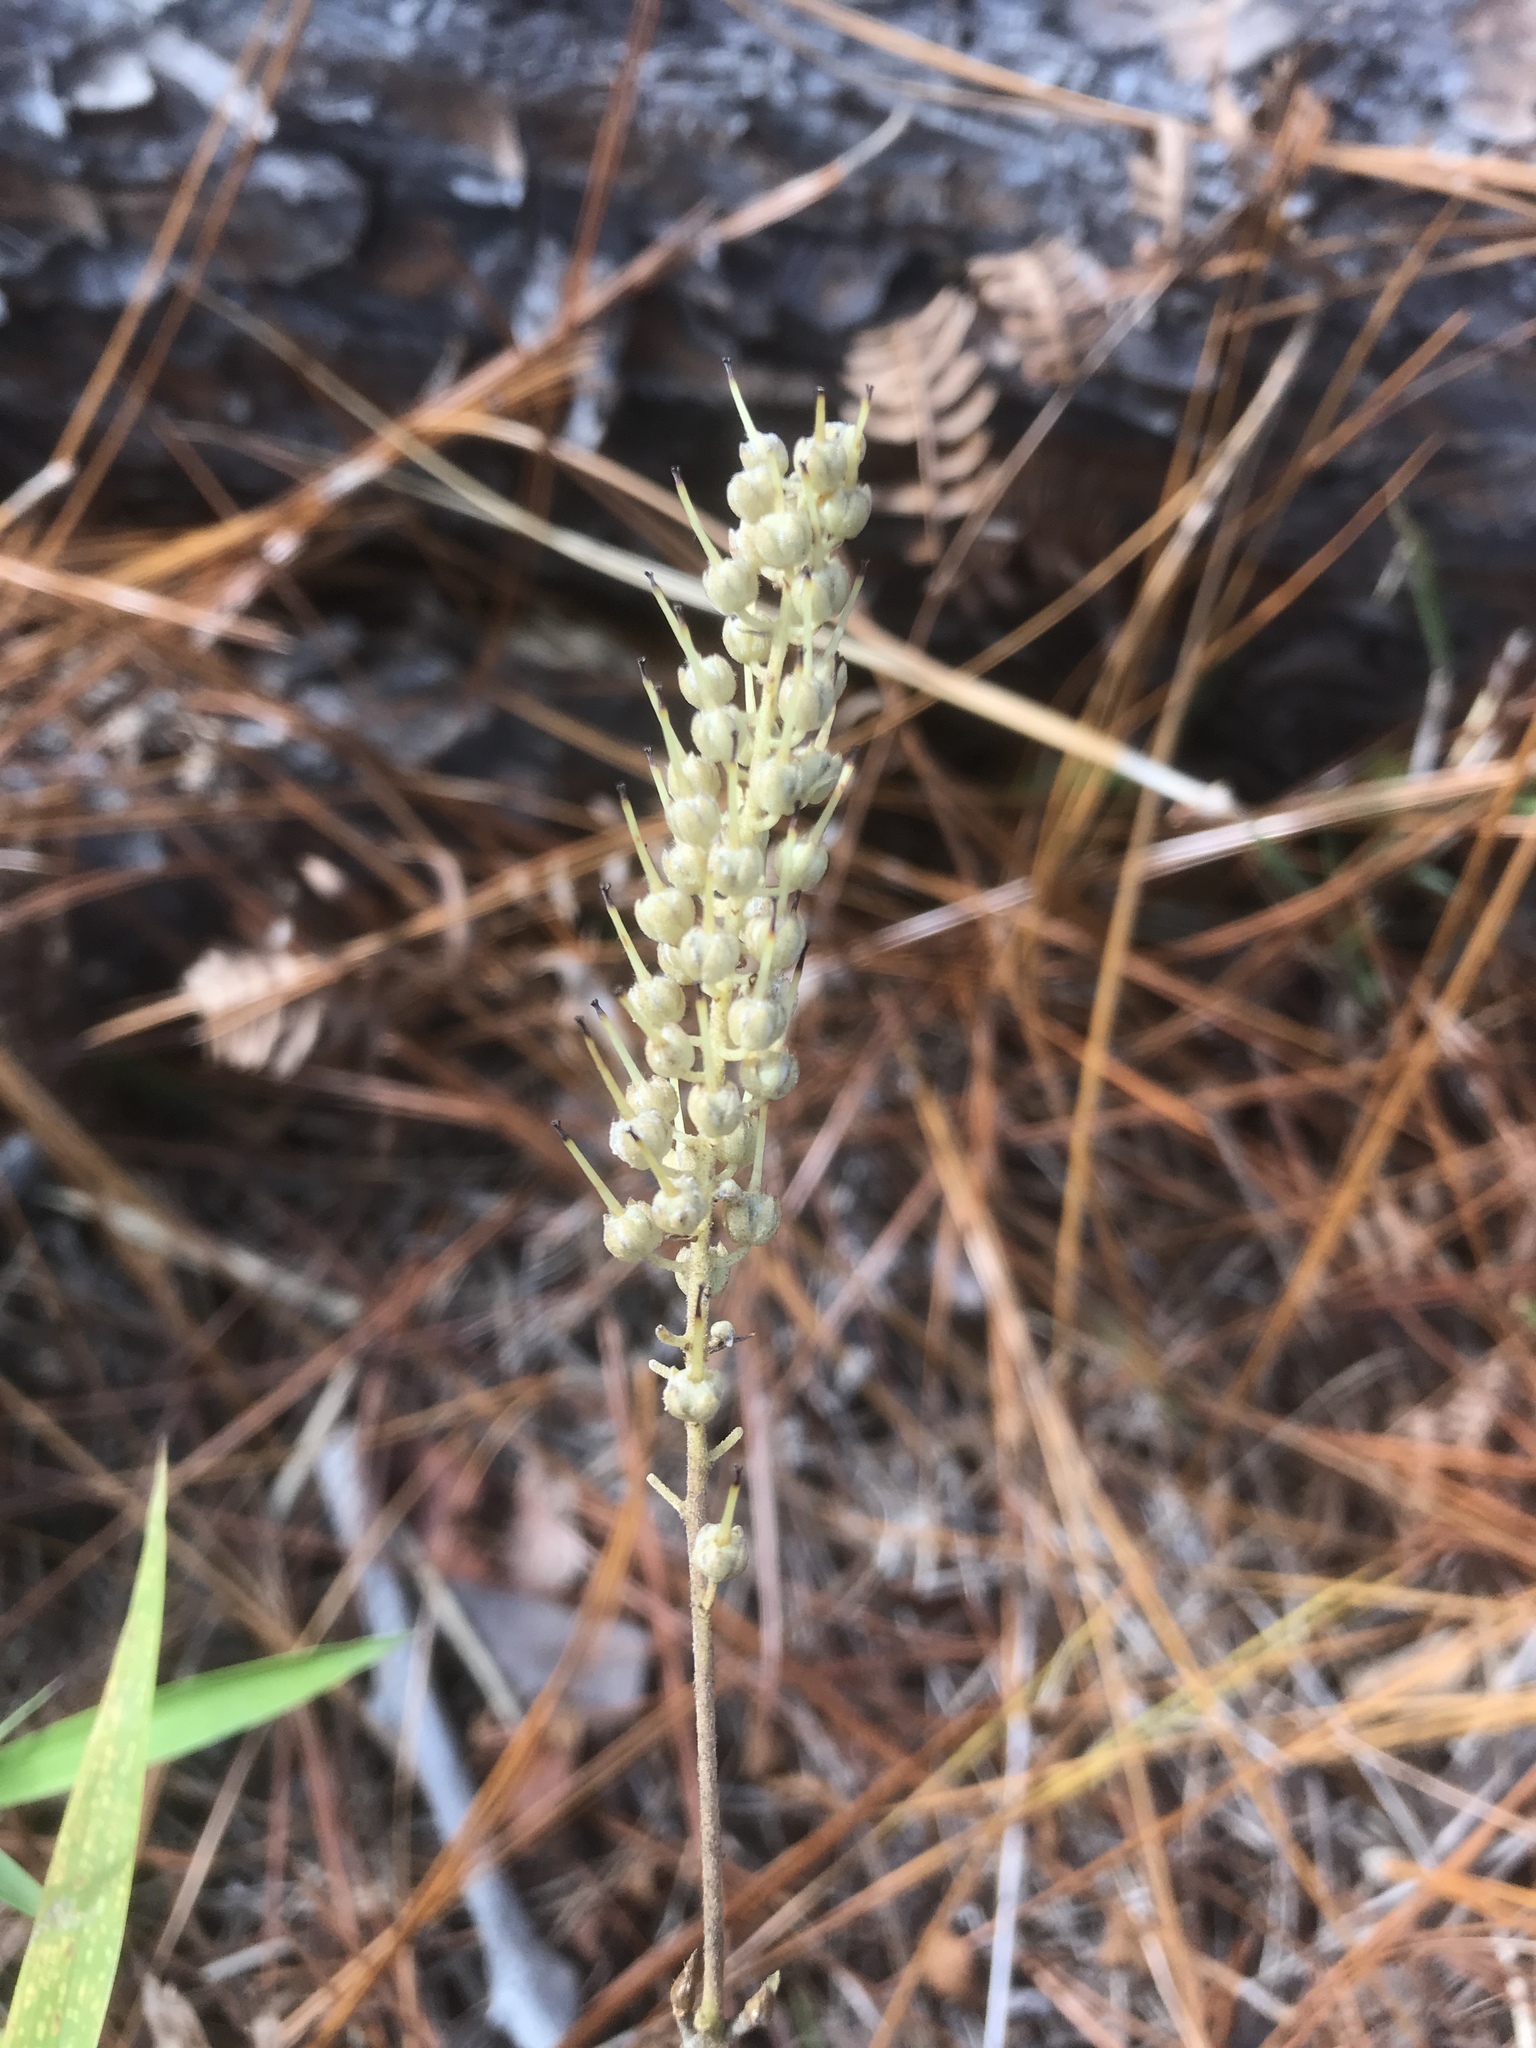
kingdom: Plantae
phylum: Tracheophyta
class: Magnoliopsida
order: Ericales
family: Clethraceae
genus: Clethra
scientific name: Clethra alnifolia
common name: Sweet pepperbush
